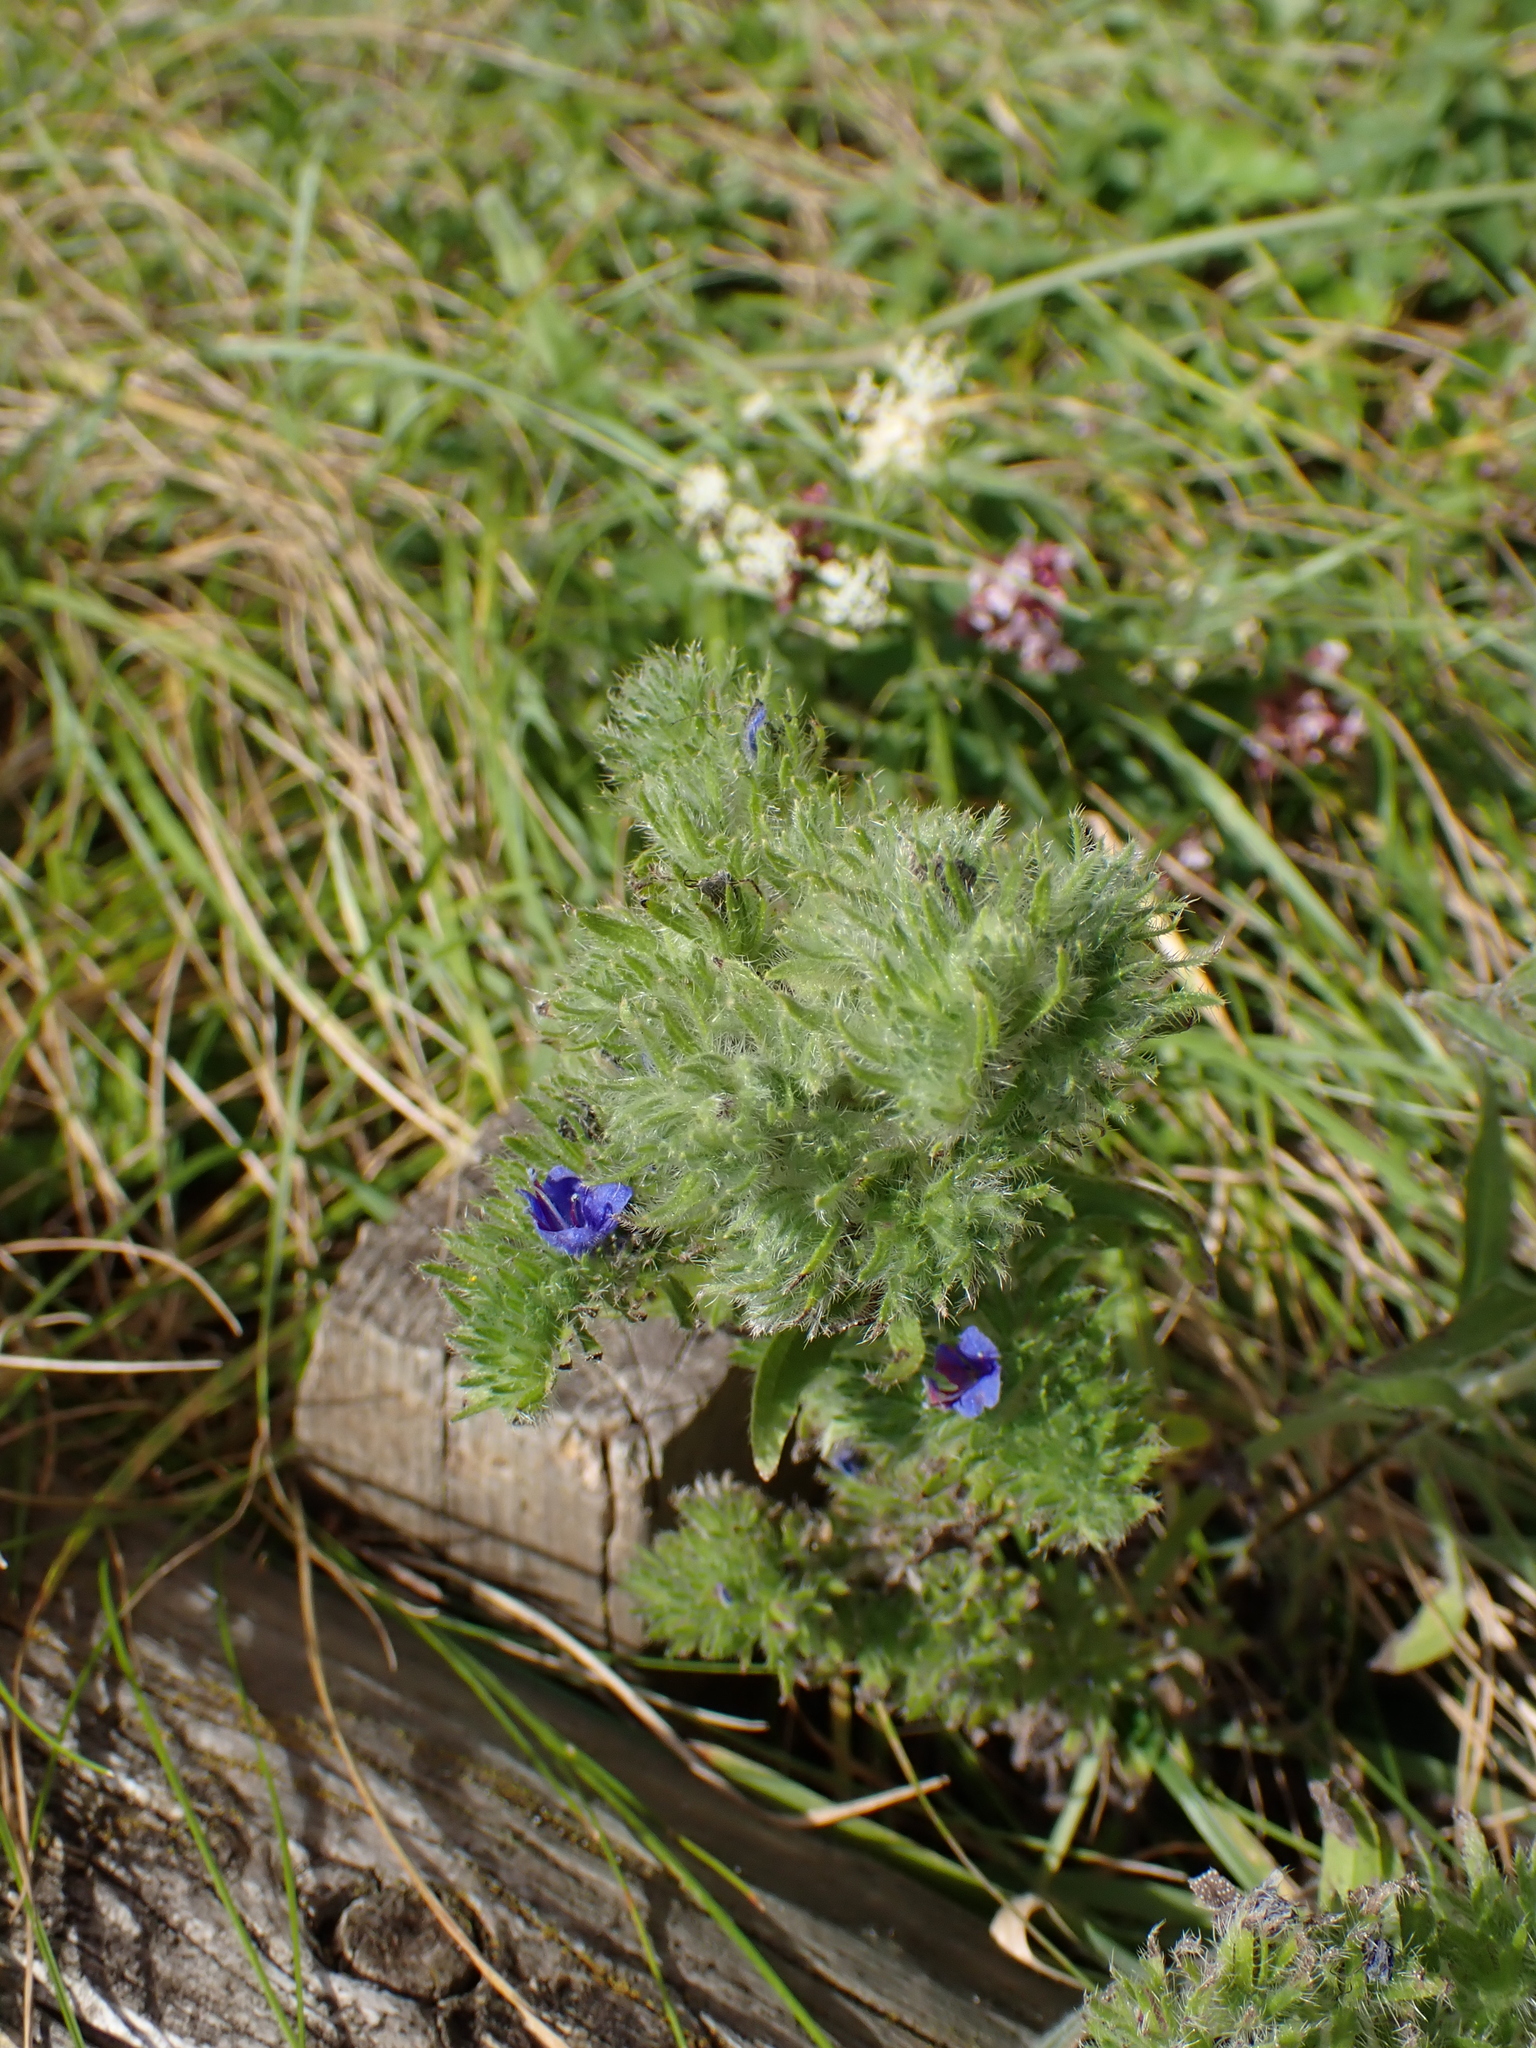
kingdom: Plantae
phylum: Tracheophyta
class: Magnoliopsida
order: Boraginales
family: Boraginaceae
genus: Echium
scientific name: Echium vulgare
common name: Common viper's bugloss
